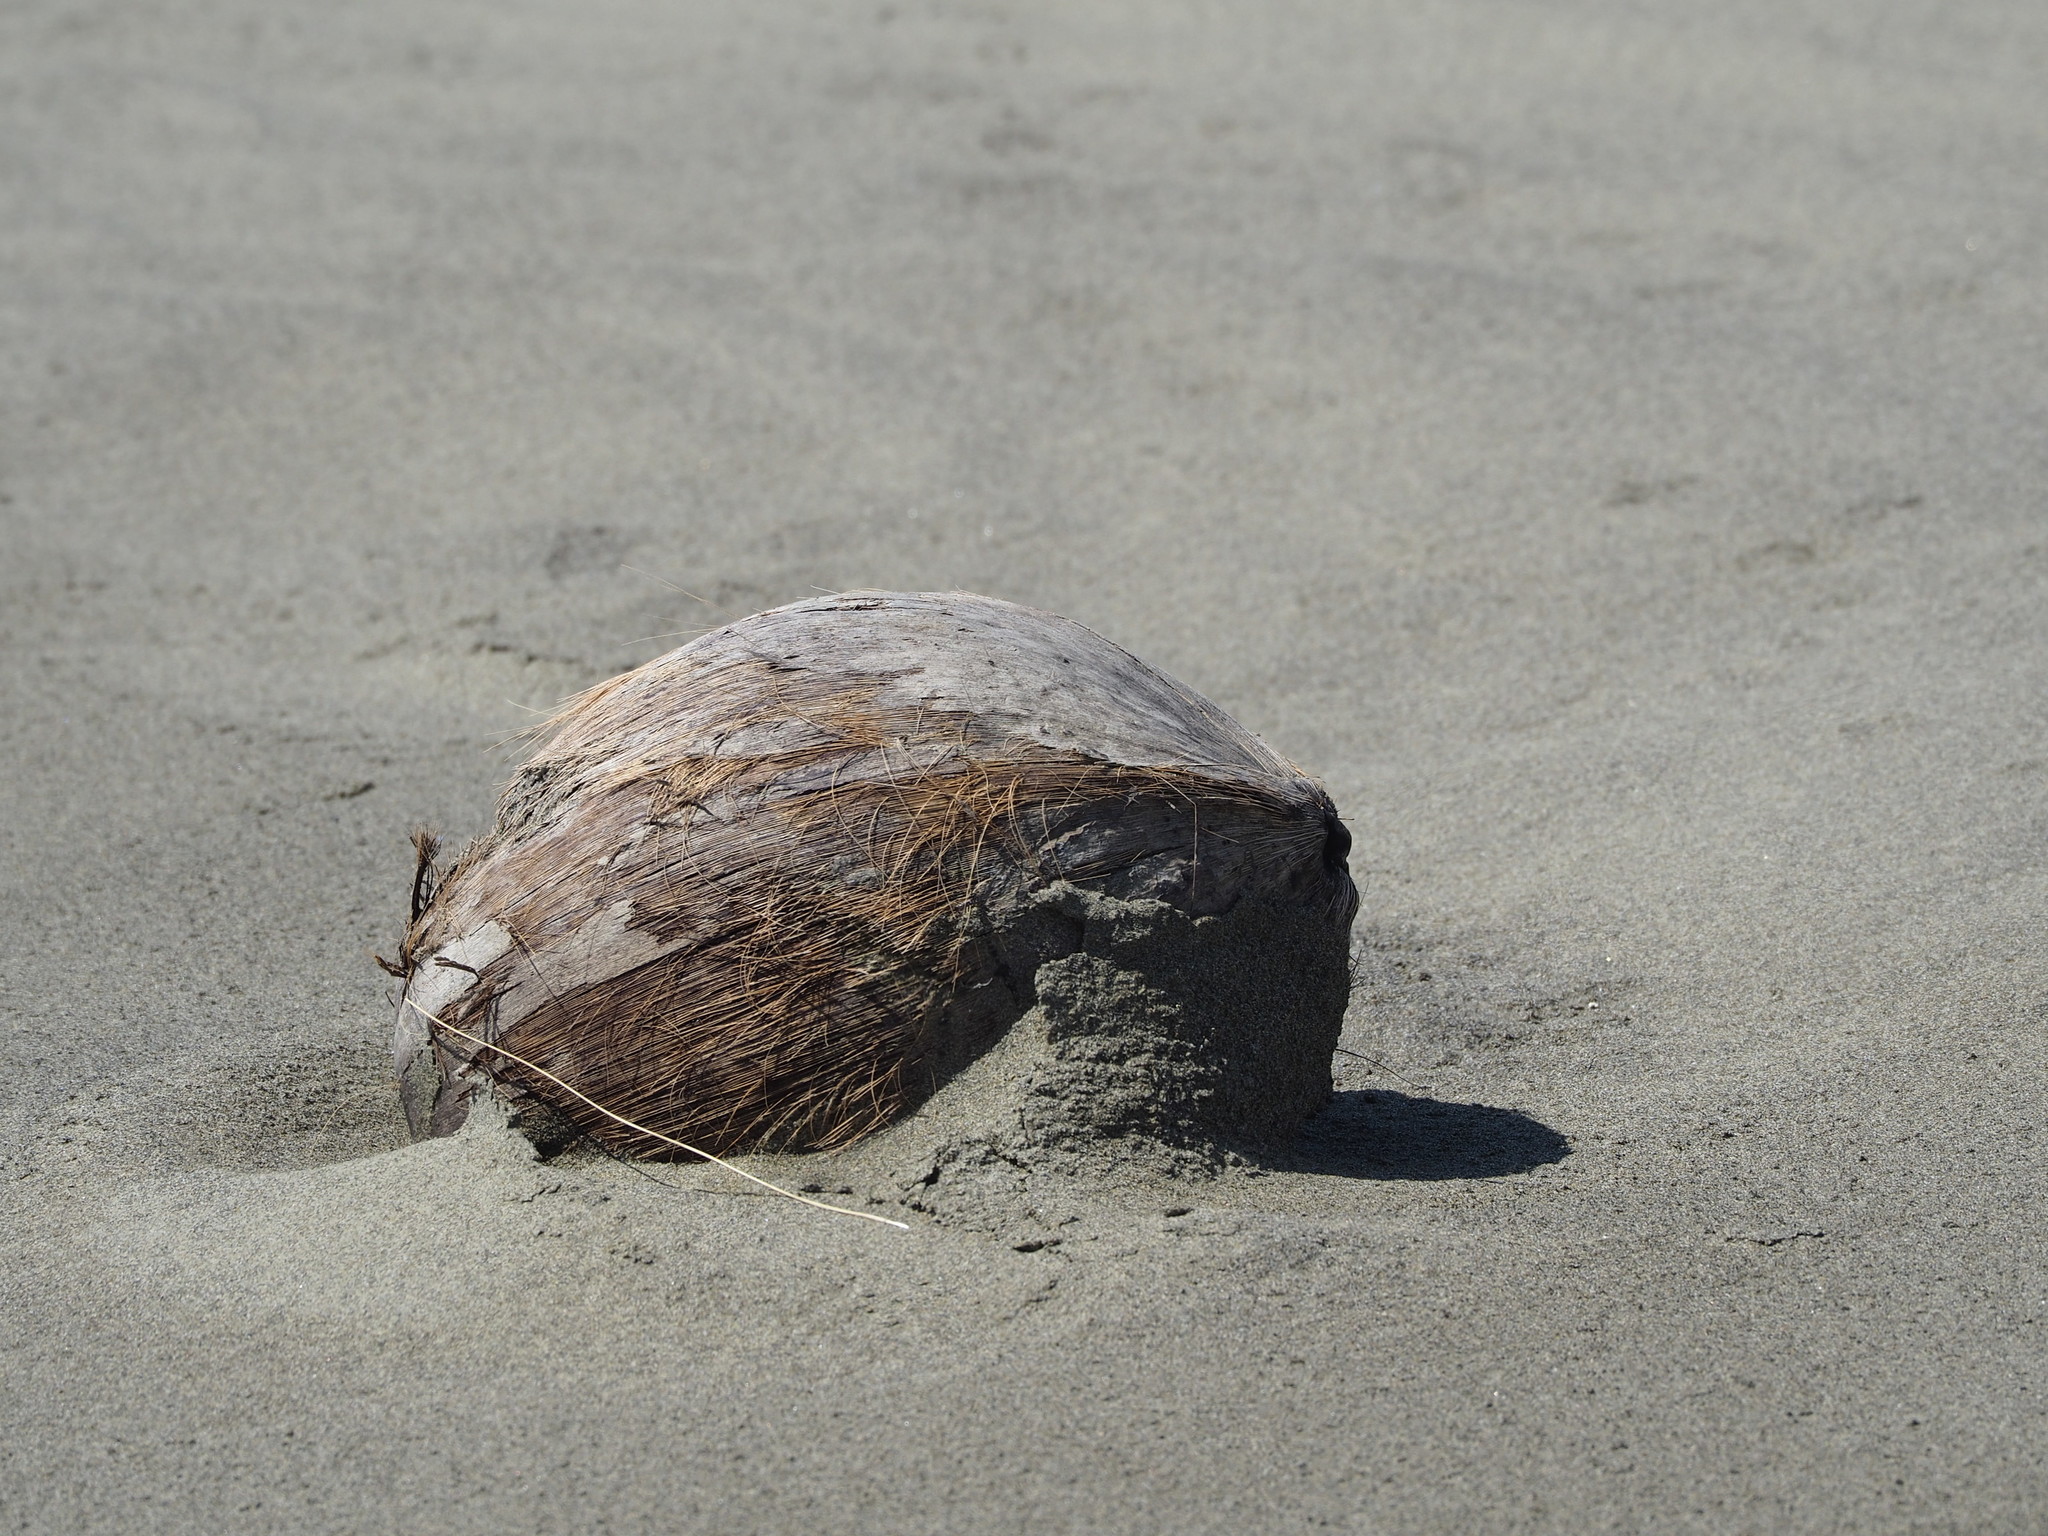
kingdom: Plantae
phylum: Tracheophyta
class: Liliopsida
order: Arecales
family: Arecaceae
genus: Cocos
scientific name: Cocos nucifera
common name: Coconut palm
